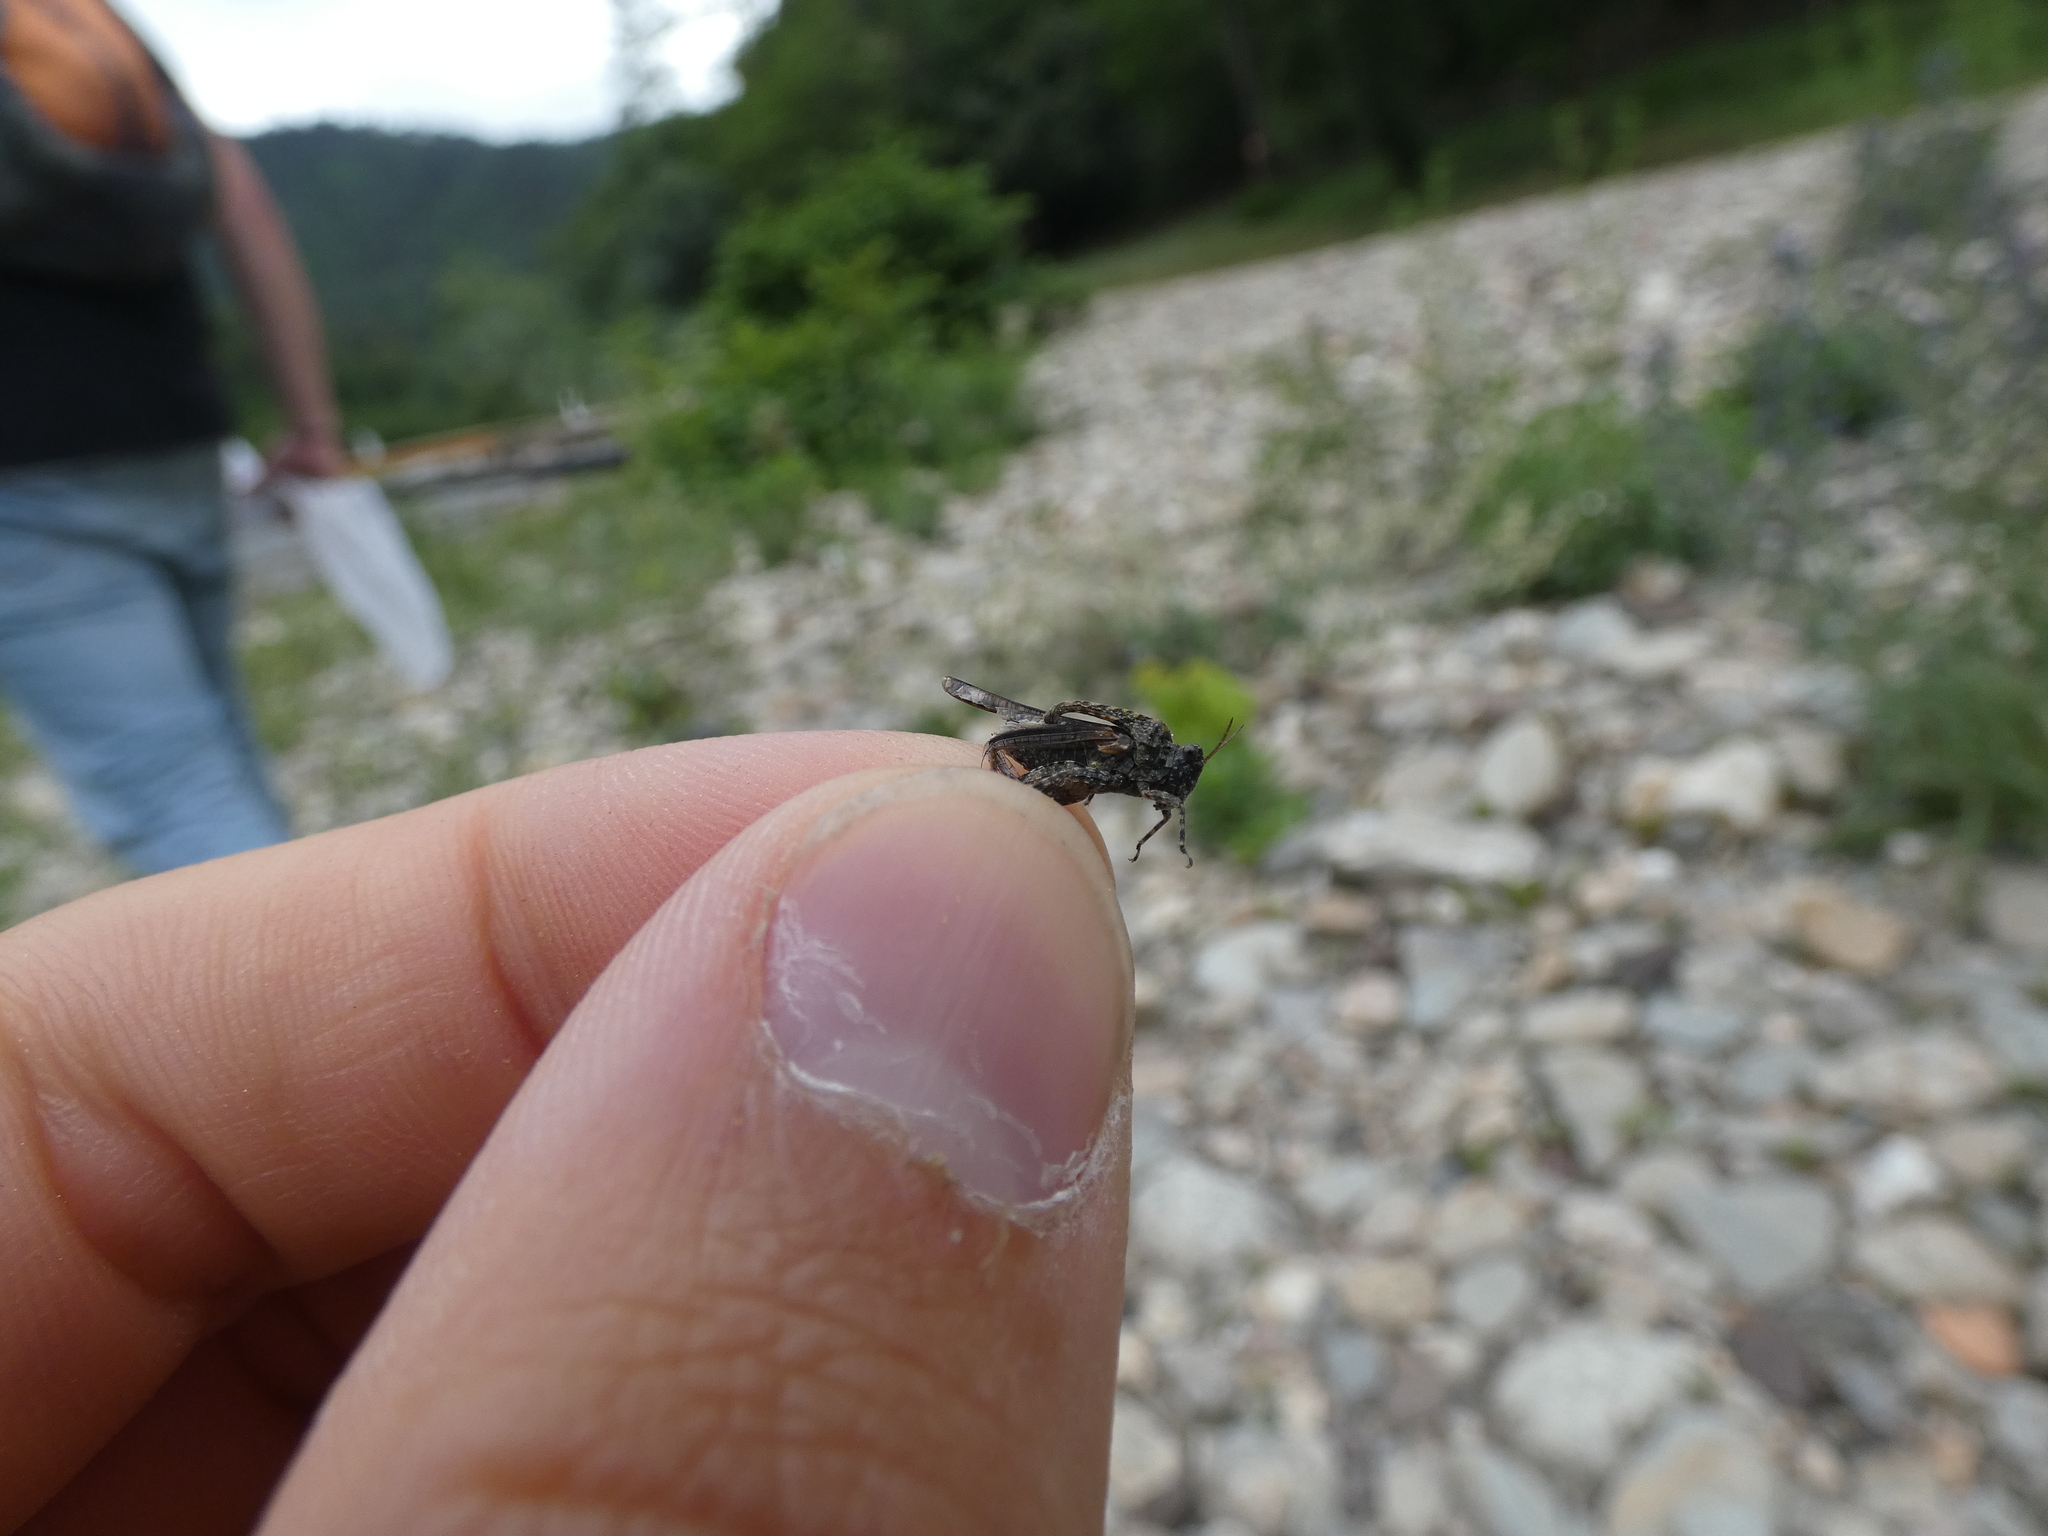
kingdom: Animalia
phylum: Arthropoda
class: Insecta
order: Orthoptera
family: Tetrigidae
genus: Paratettix
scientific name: Paratettix meridionalis
